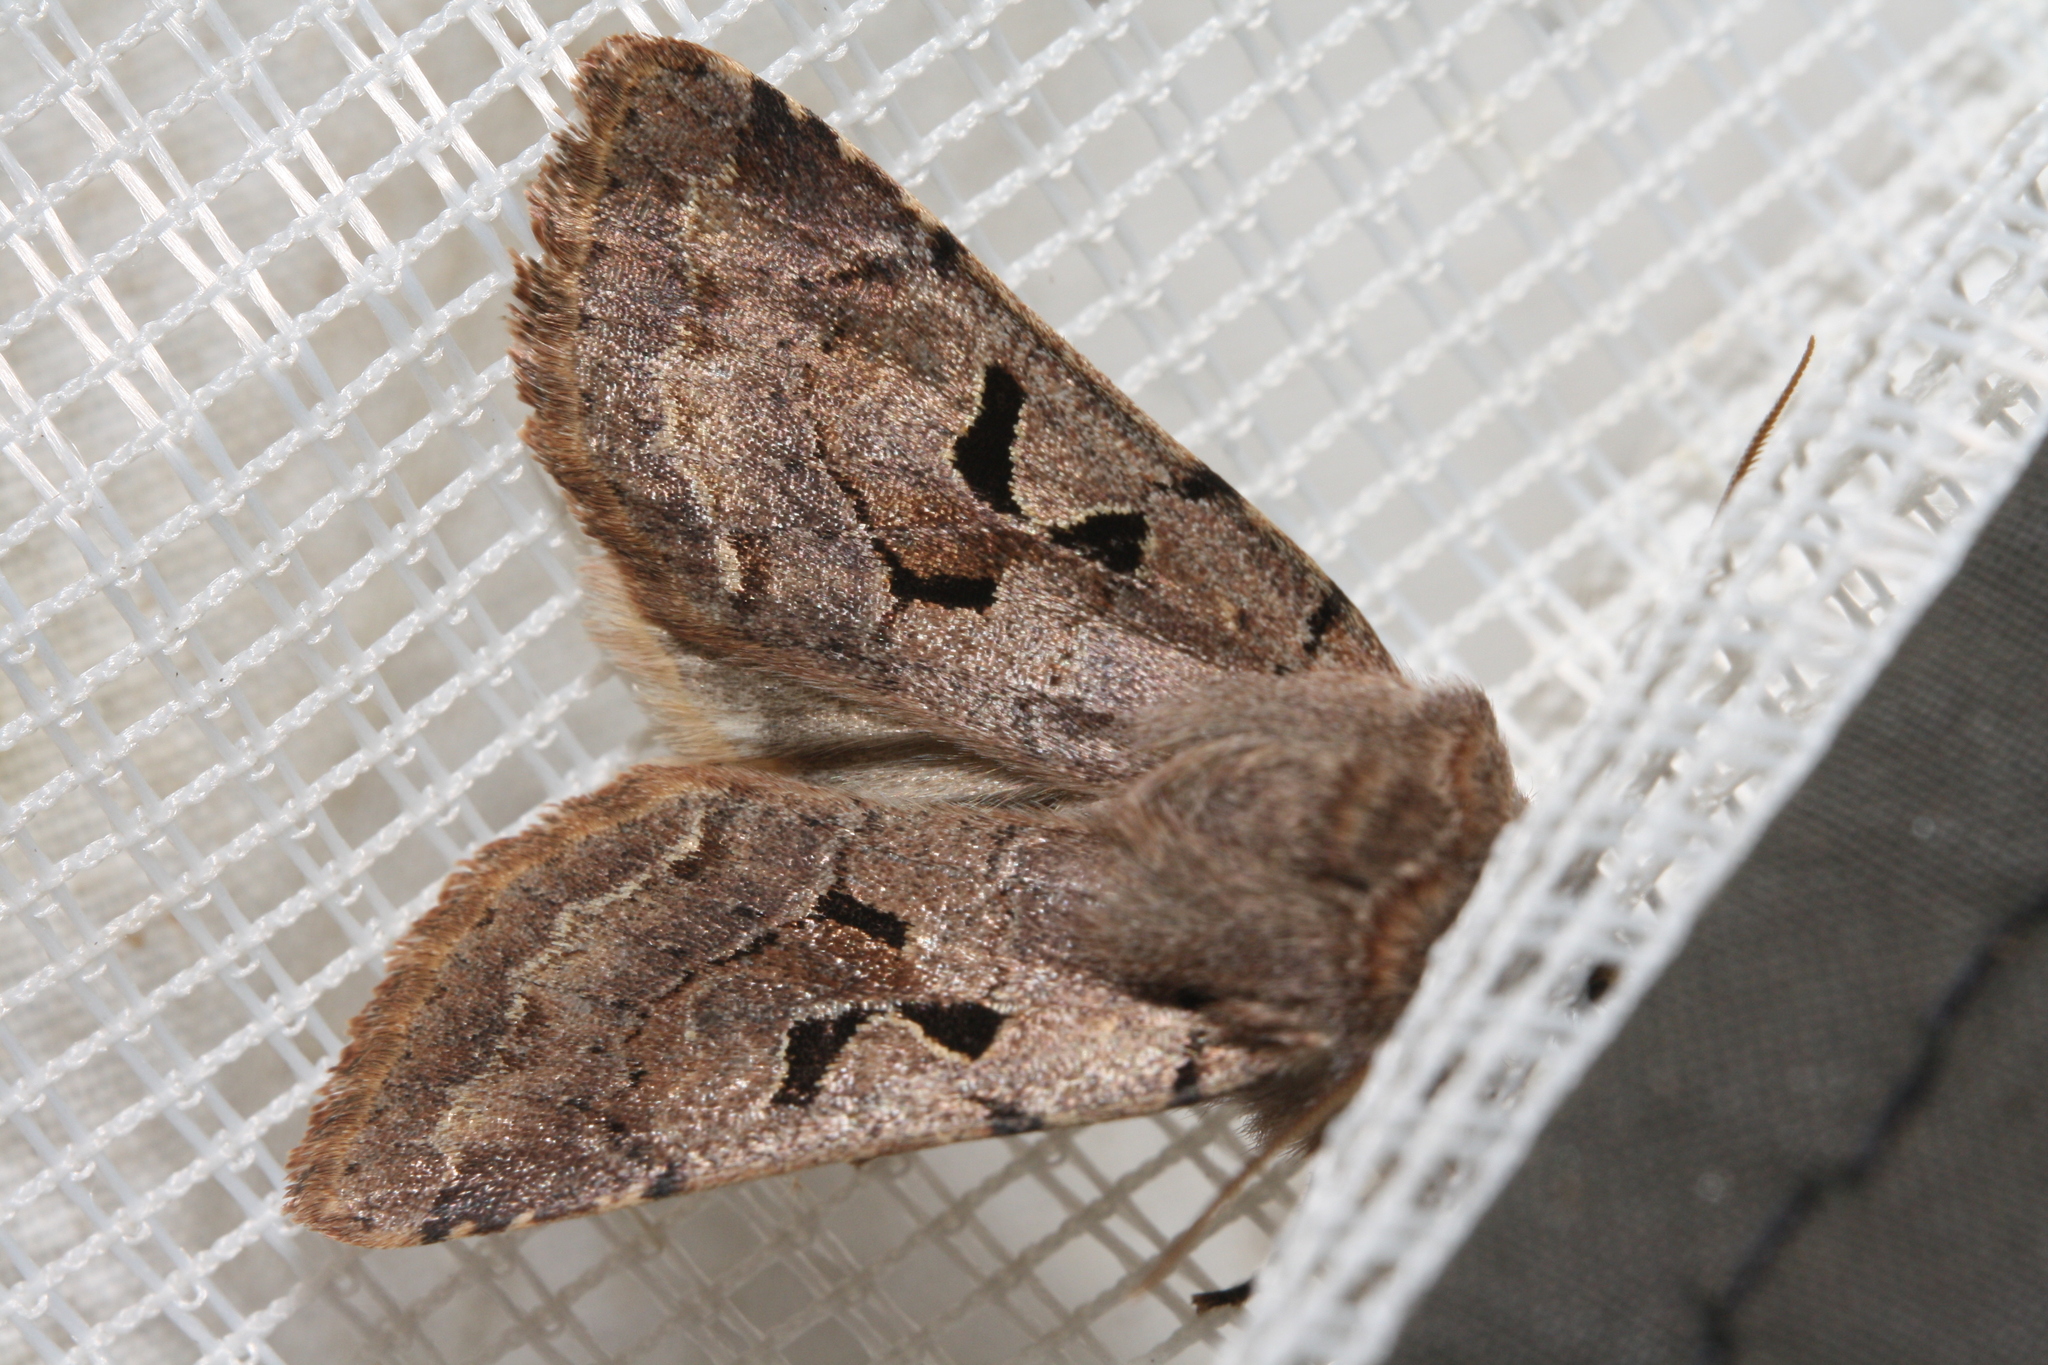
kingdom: Animalia
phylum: Arthropoda
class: Insecta
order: Lepidoptera
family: Noctuidae
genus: Orthosia
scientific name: Orthosia gothica
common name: Hebrew character
